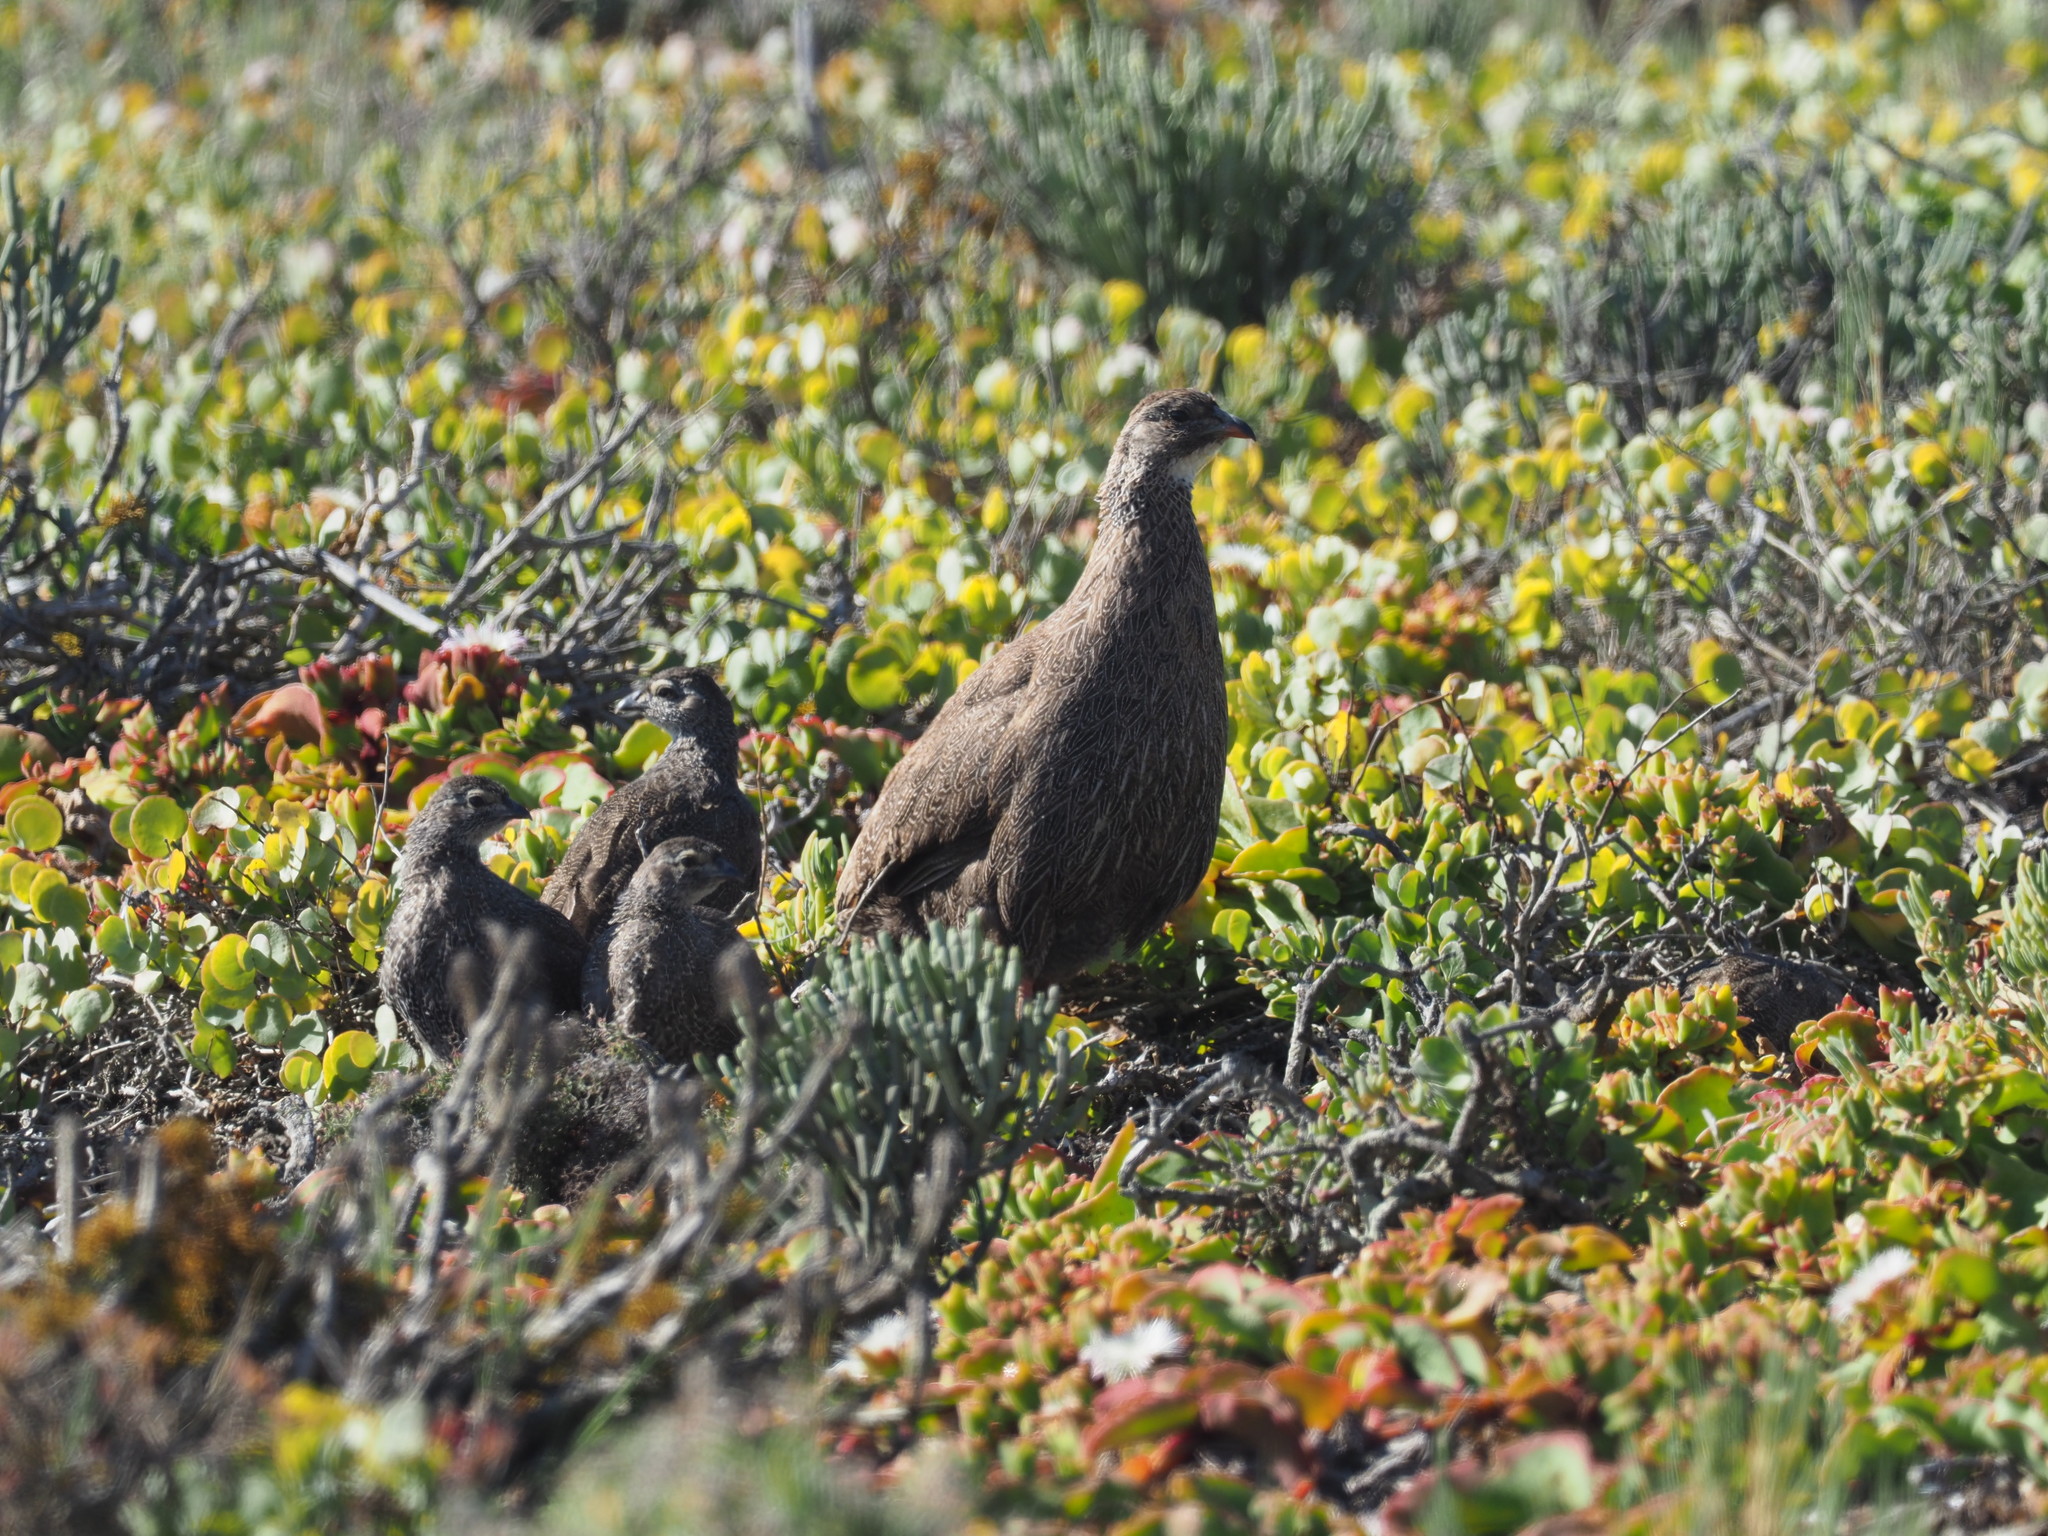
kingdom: Animalia
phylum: Chordata
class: Aves
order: Galliformes
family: Phasianidae
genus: Pternistis
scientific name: Pternistis capensis
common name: Cape spurfowl
